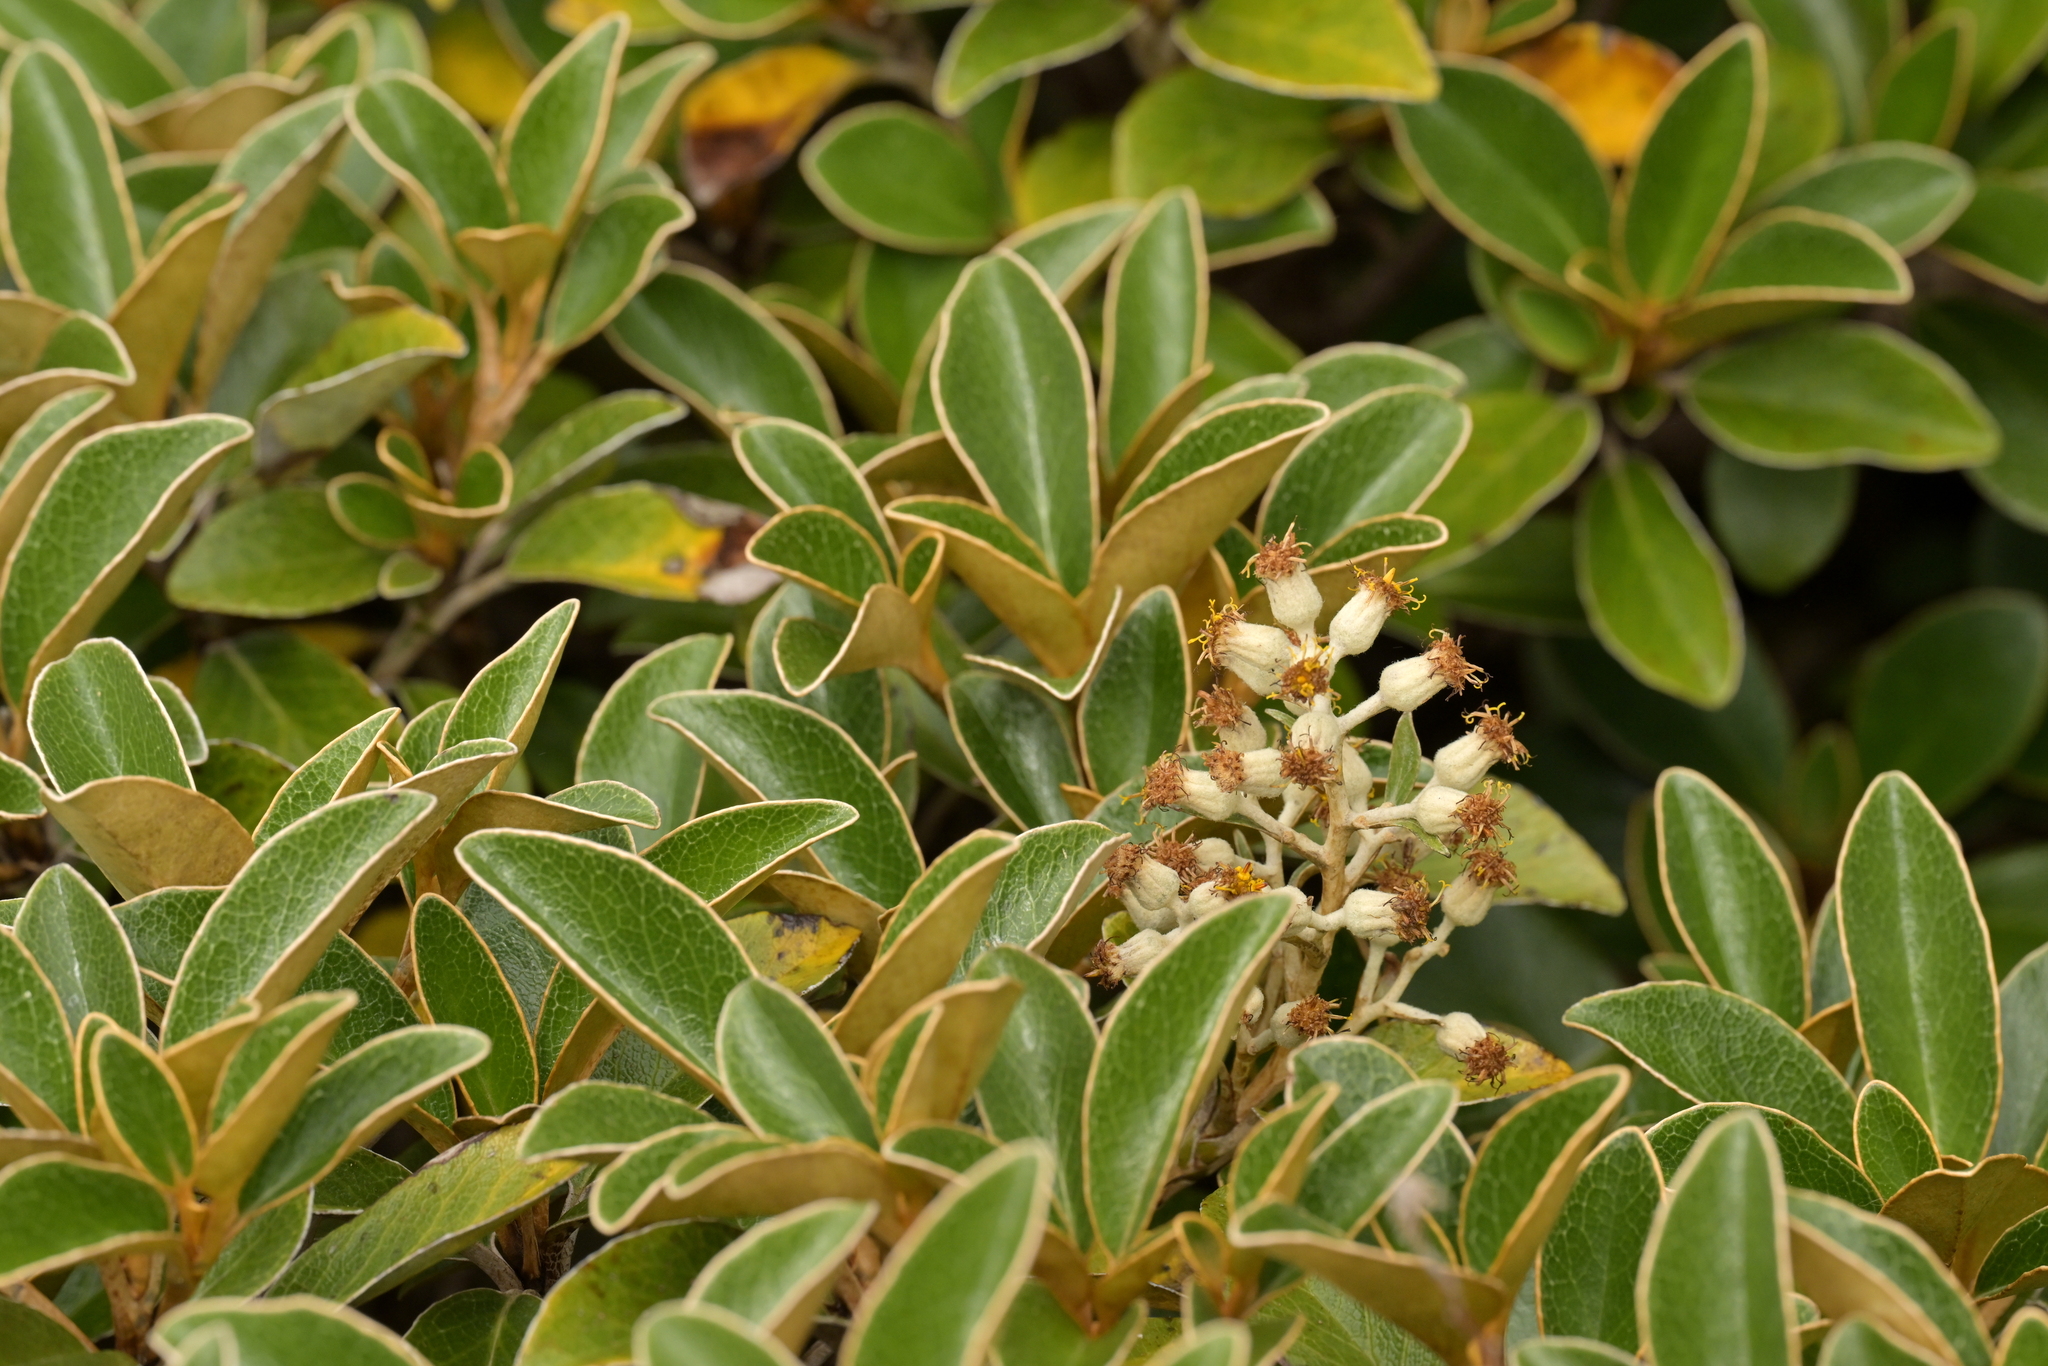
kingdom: Plantae
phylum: Tracheophyta
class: Magnoliopsida
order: Asterales
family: Asteraceae
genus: Brachyglottis
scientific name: Brachyglottis elaeagnifolia
